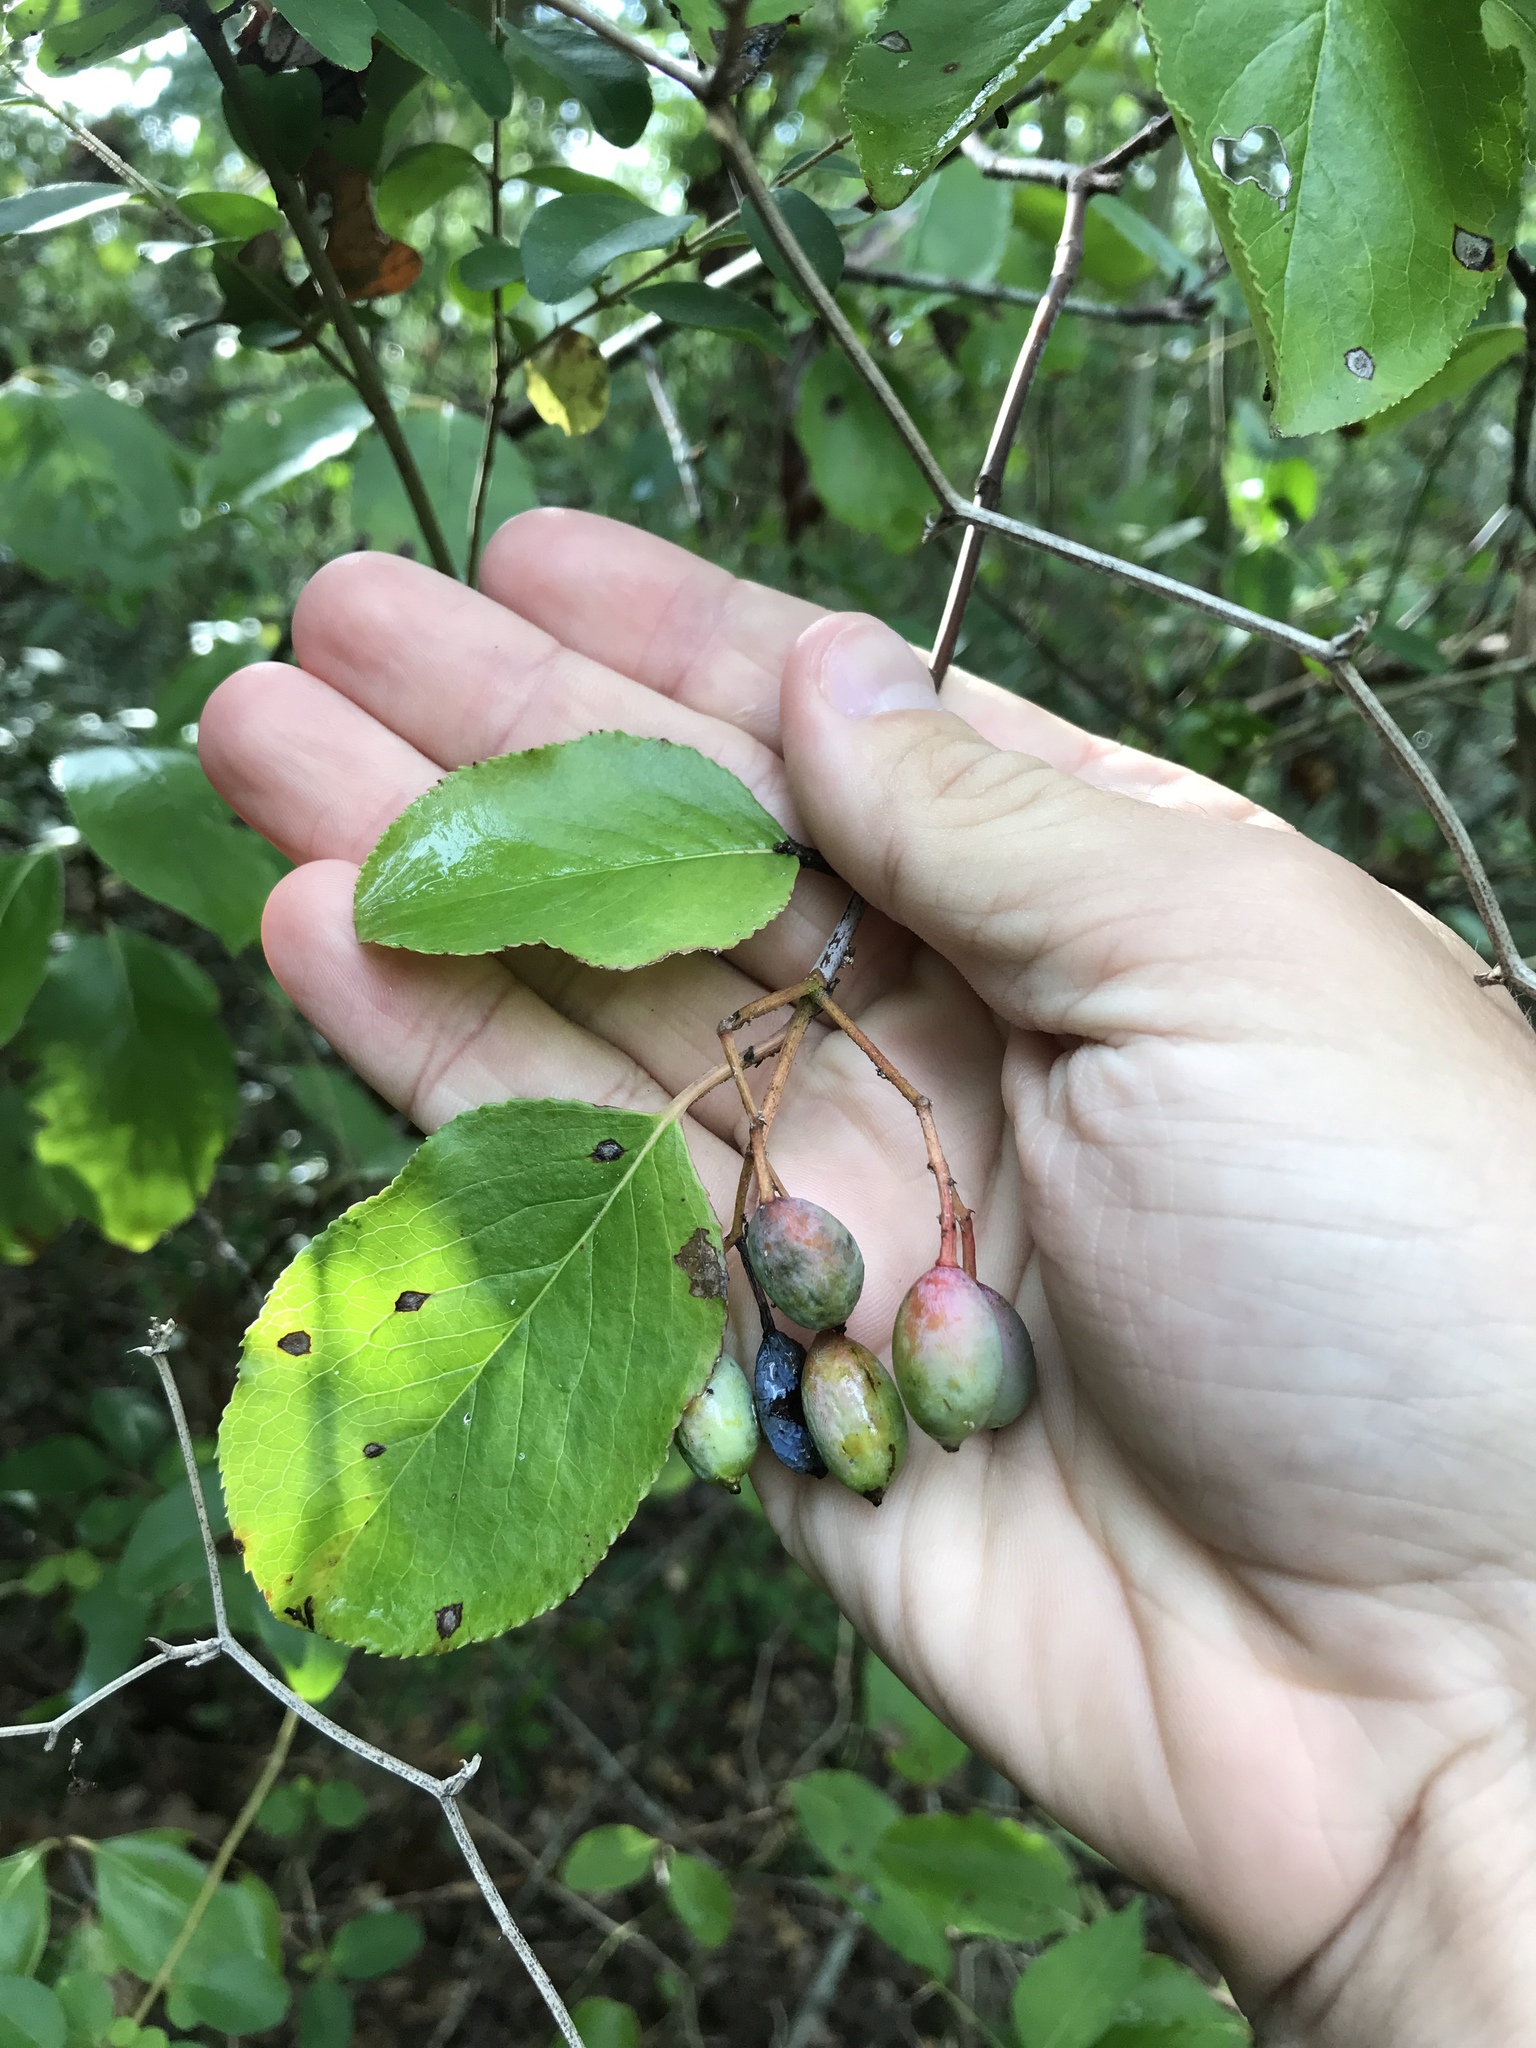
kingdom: Plantae
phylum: Tracheophyta
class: Magnoliopsida
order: Dipsacales
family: Viburnaceae
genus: Viburnum
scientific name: Viburnum rufidulum
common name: Blue haw
